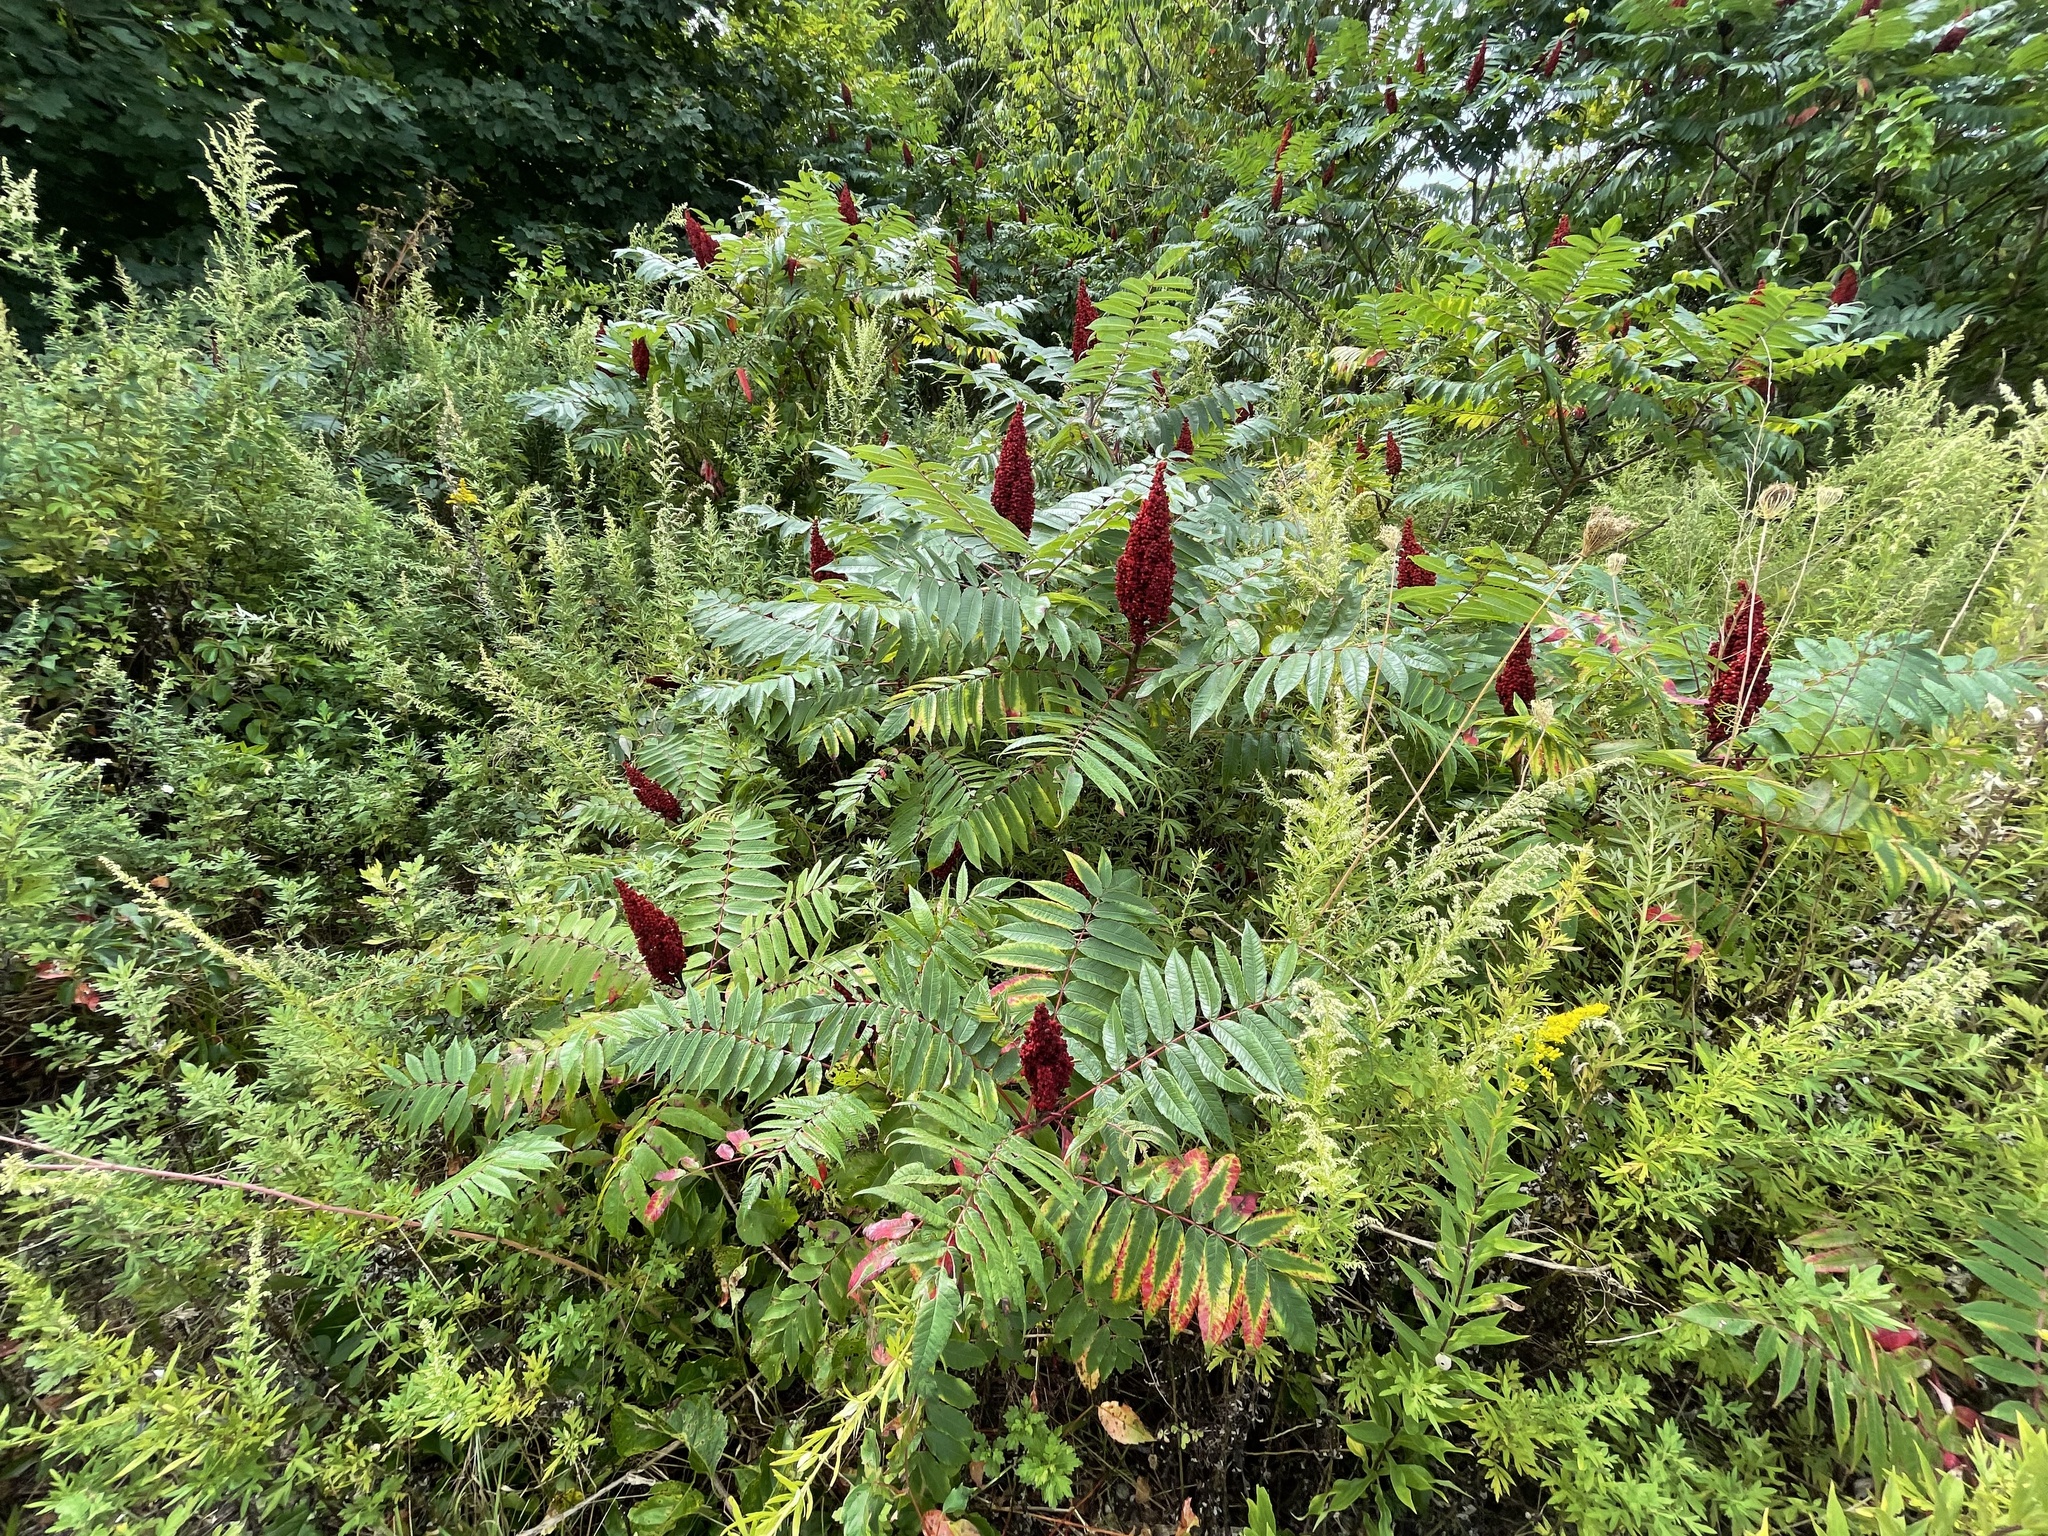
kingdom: Plantae
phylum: Tracheophyta
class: Magnoliopsida
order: Sapindales
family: Anacardiaceae
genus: Rhus
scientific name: Rhus glabra
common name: Scarlet sumac
